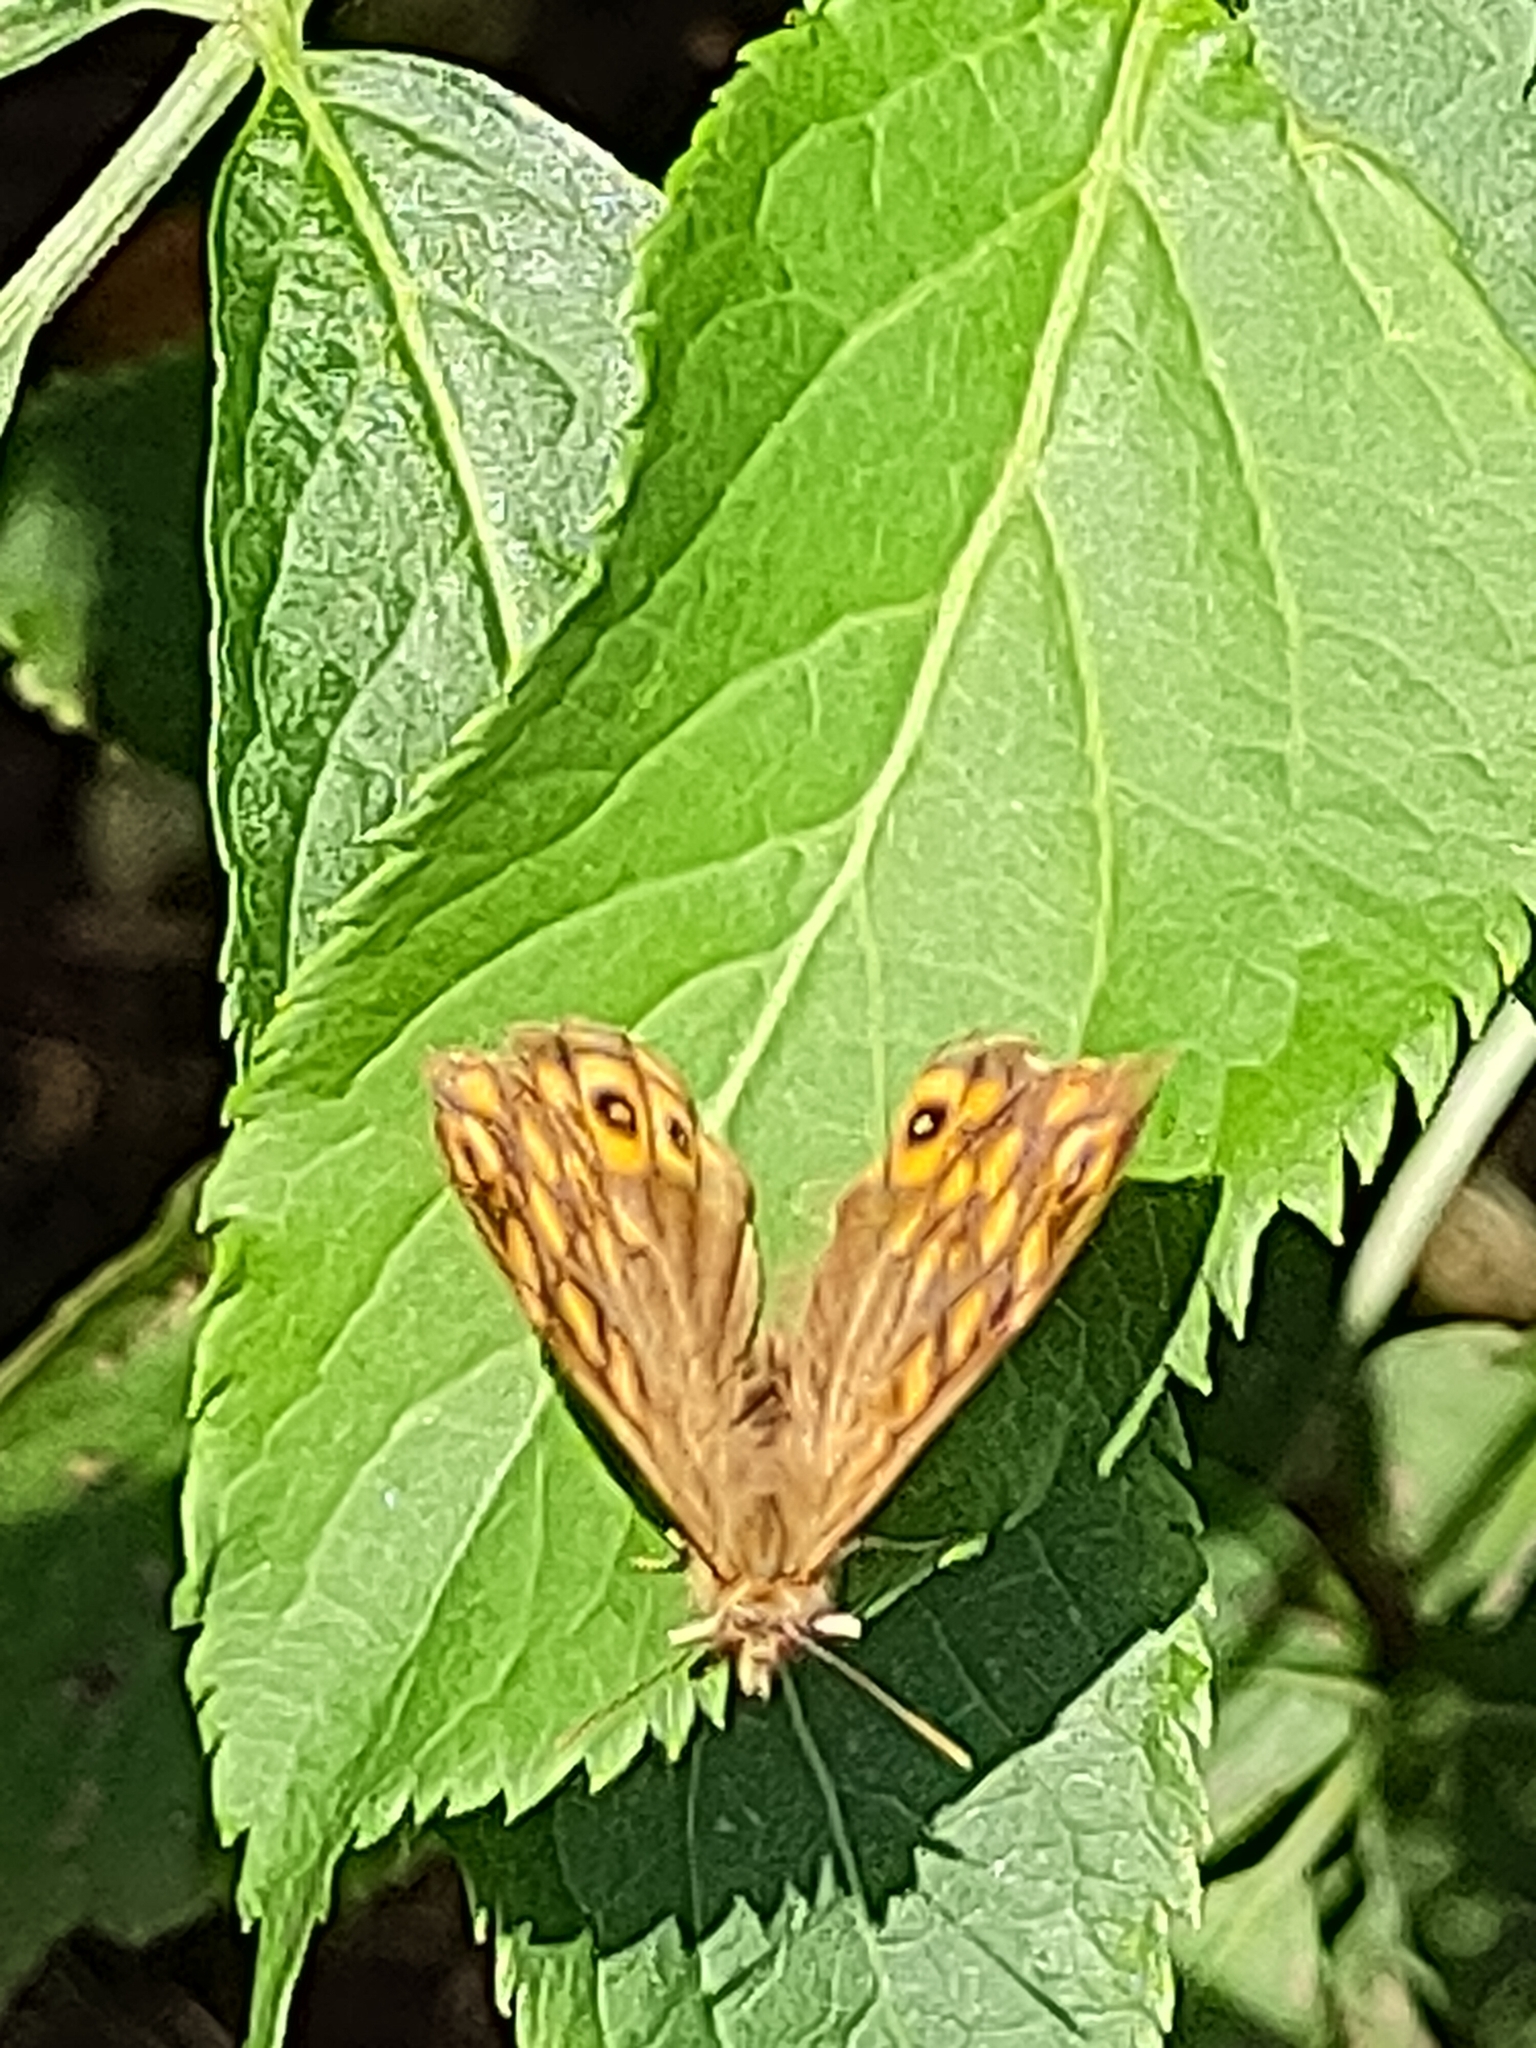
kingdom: Animalia
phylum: Arthropoda
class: Insecta
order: Lepidoptera
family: Nymphalidae
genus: Pararge
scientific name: Pararge aegeria
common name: Speckled wood
